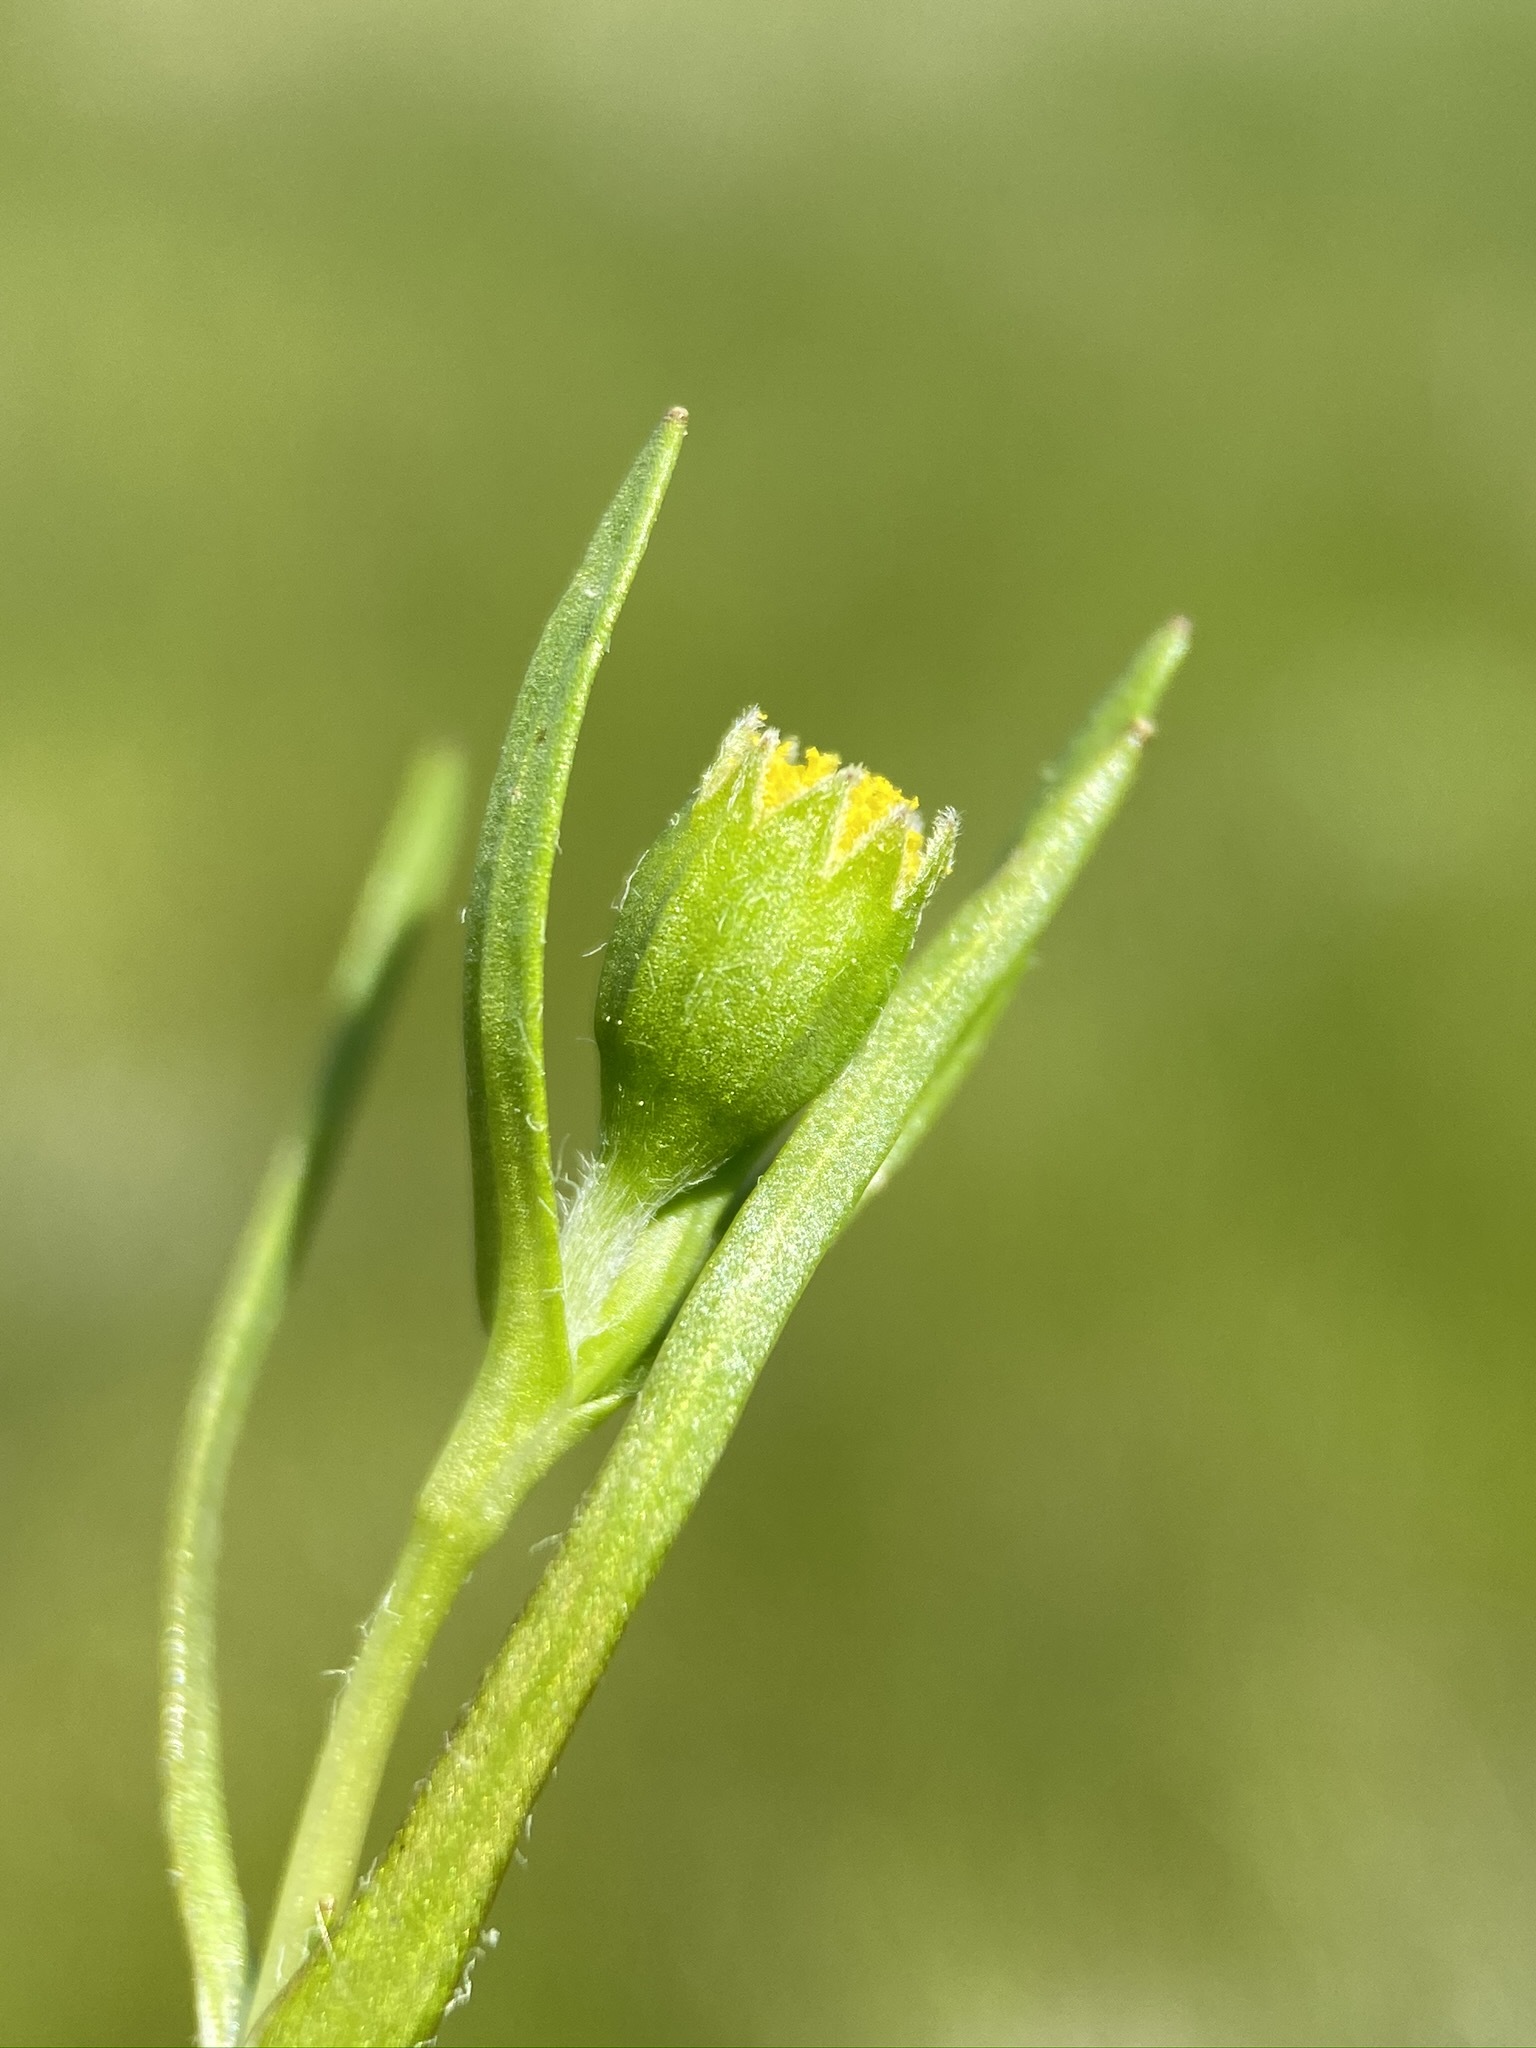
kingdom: Plantae
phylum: Tracheophyta
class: Magnoliopsida
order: Asterales
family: Asteraceae
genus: Lasthenia
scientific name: Lasthenia glaberrima
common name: Smooth goldfields
